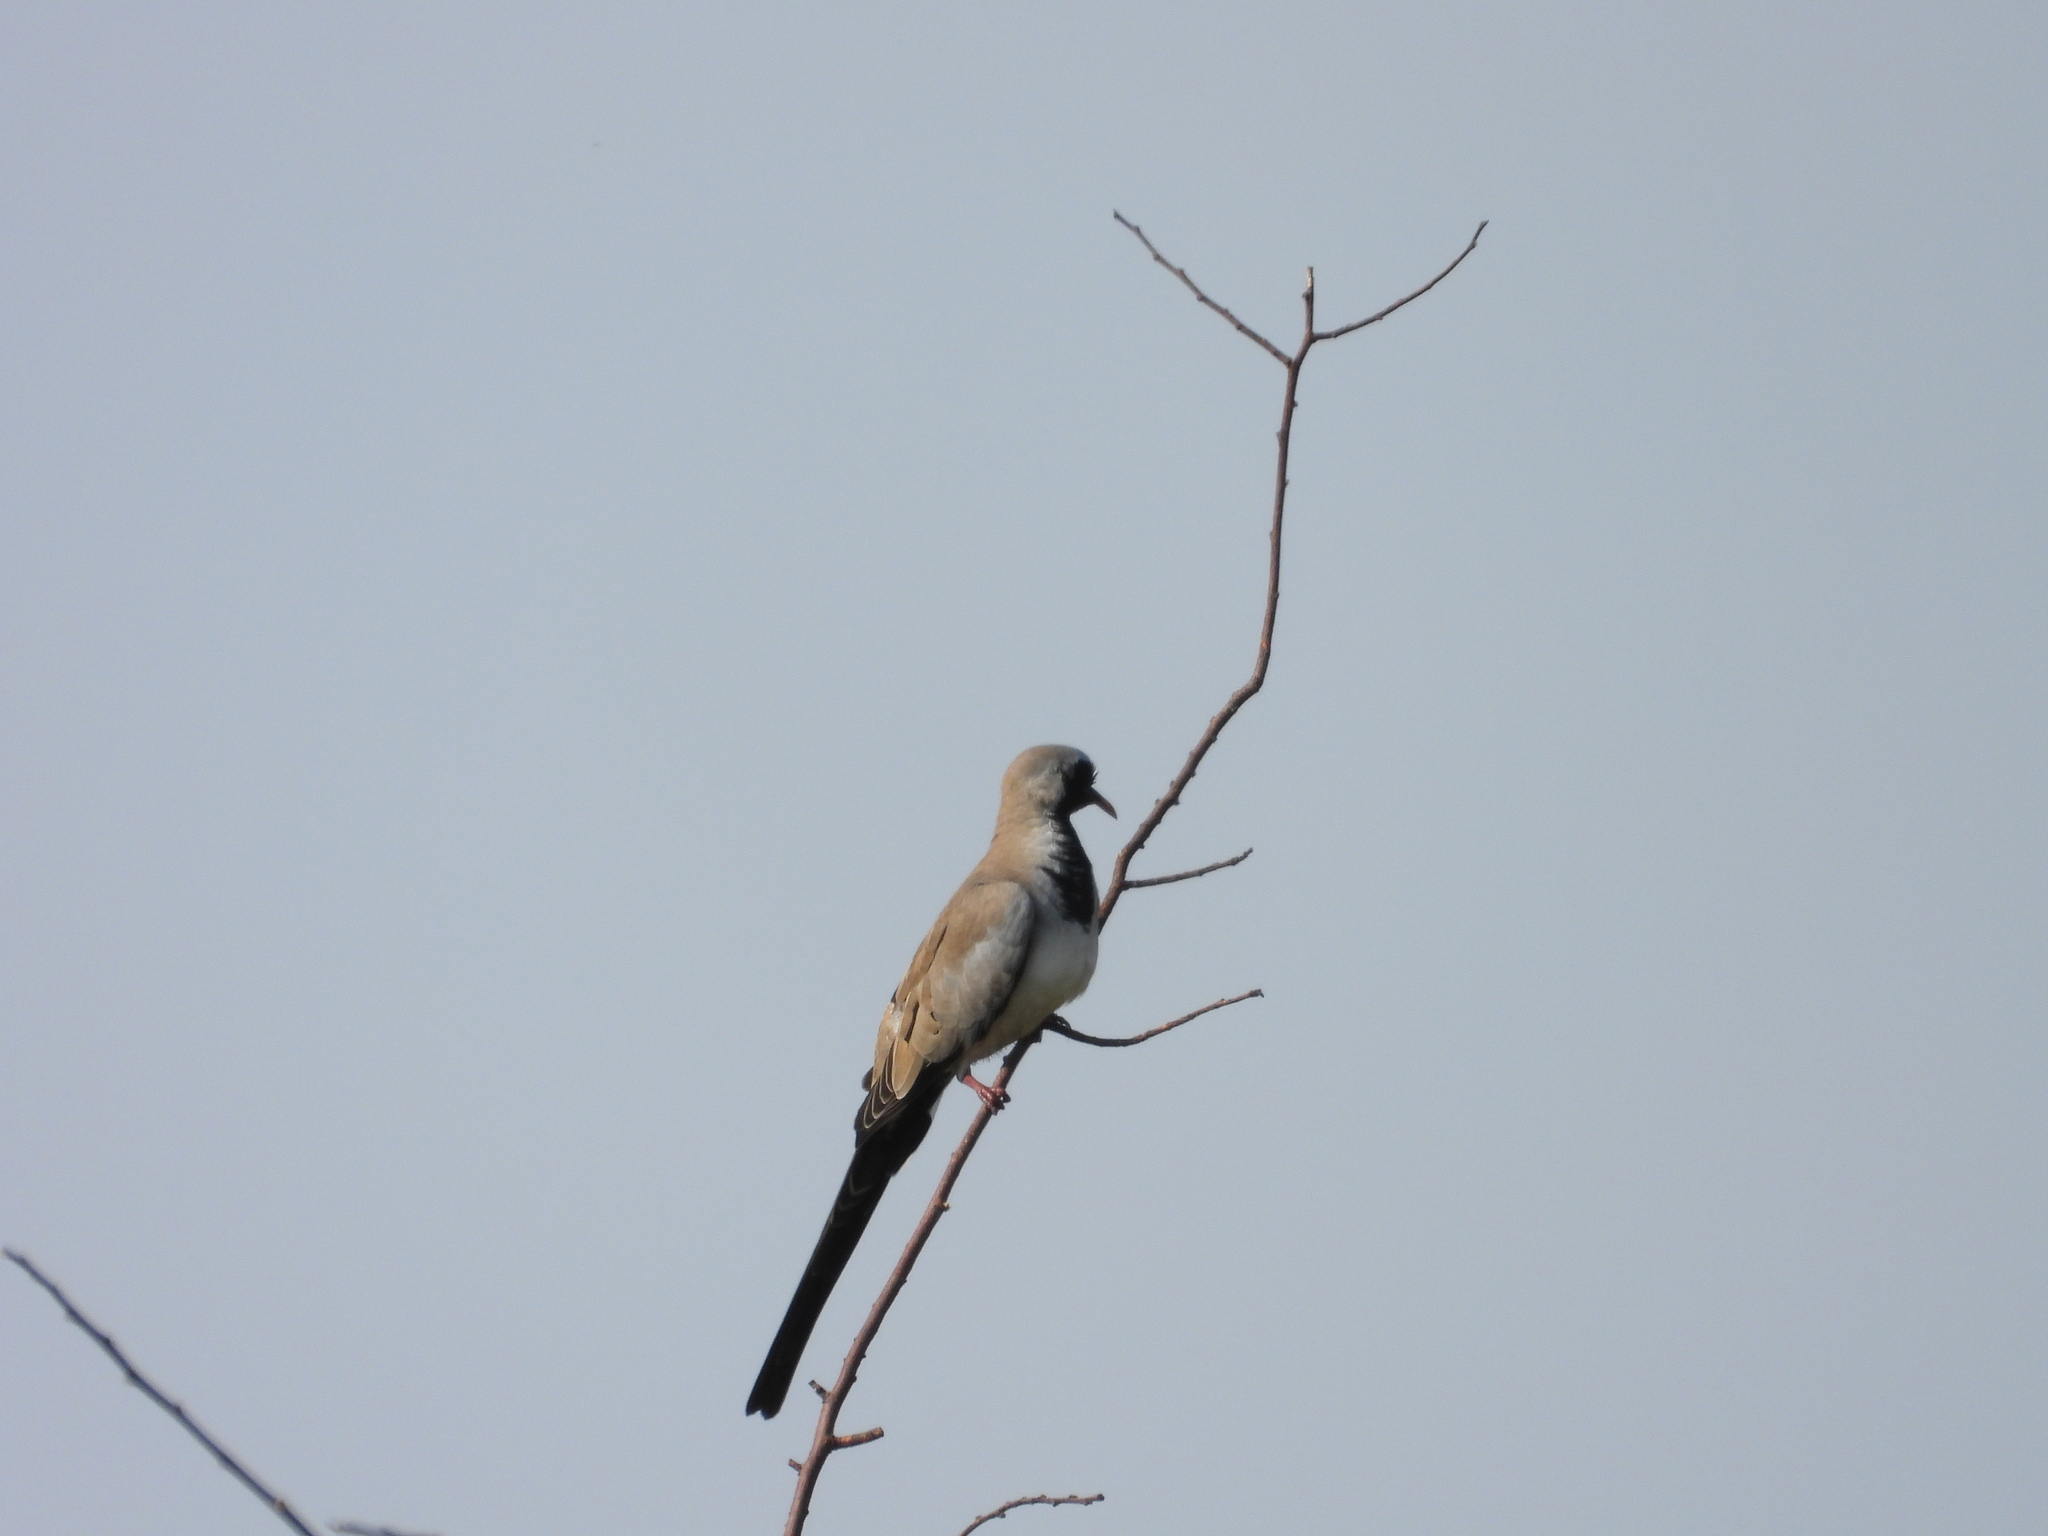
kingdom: Animalia
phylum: Chordata
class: Aves
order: Columbiformes
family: Columbidae
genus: Oena
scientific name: Oena capensis
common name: Namaqua dove
